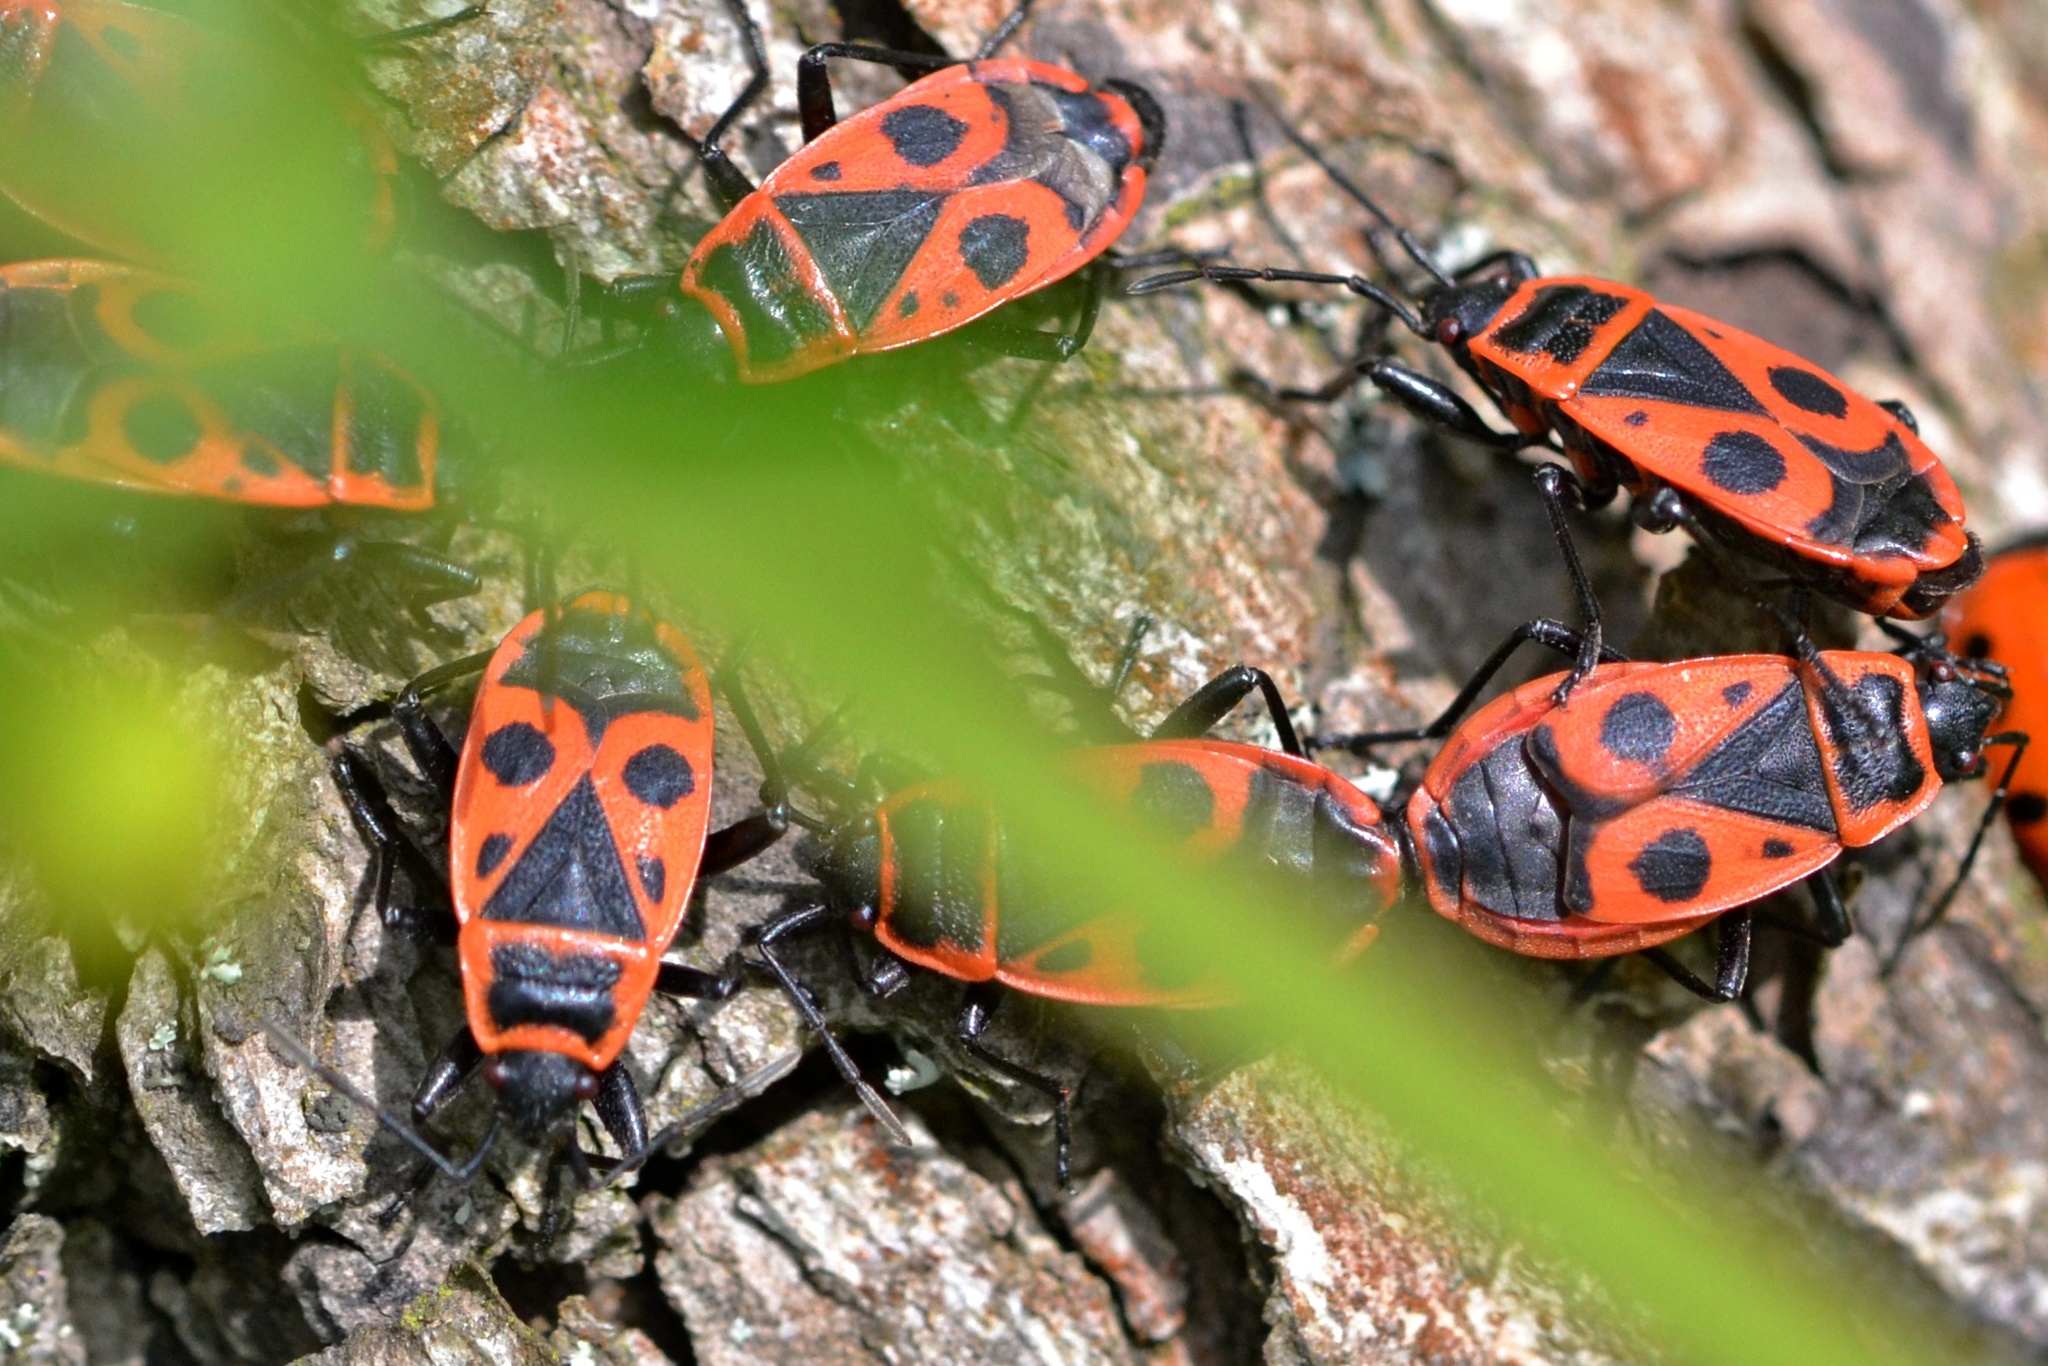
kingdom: Animalia
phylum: Arthropoda
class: Insecta
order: Hemiptera
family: Pyrrhocoridae
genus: Pyrrhocoris
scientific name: Pyrrhocoris apterus
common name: Firebug
